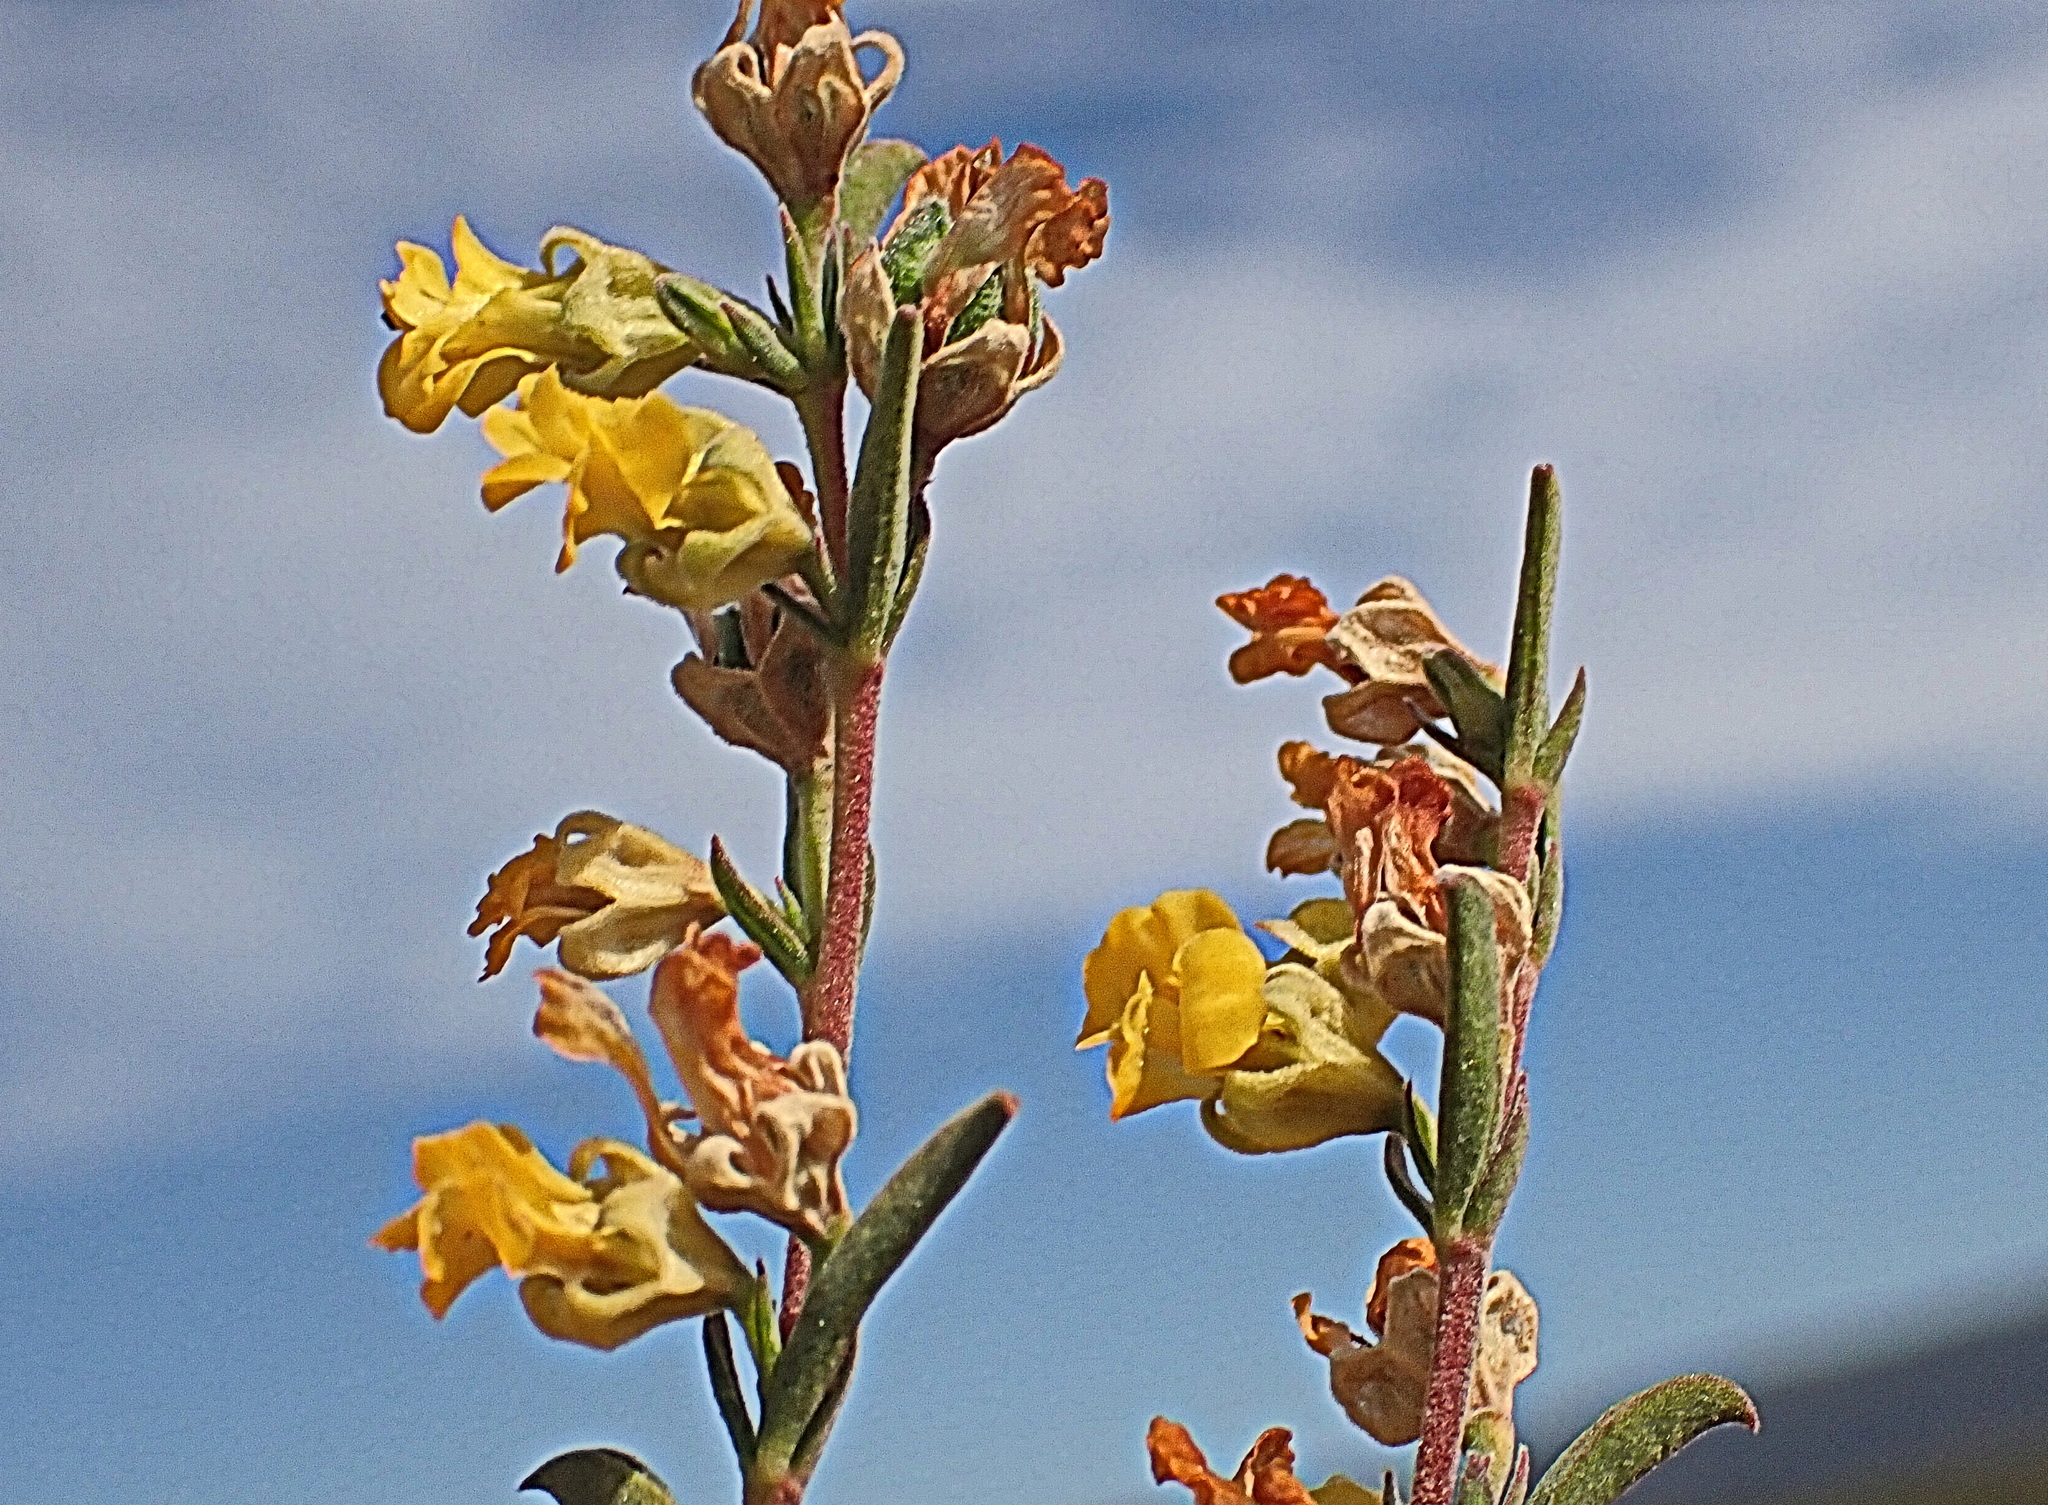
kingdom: Plantae
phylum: Tracheophyta
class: Magnoliopsida
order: Malvales
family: Malvaceae
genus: Hermannia
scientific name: Hermannia diversistipula
